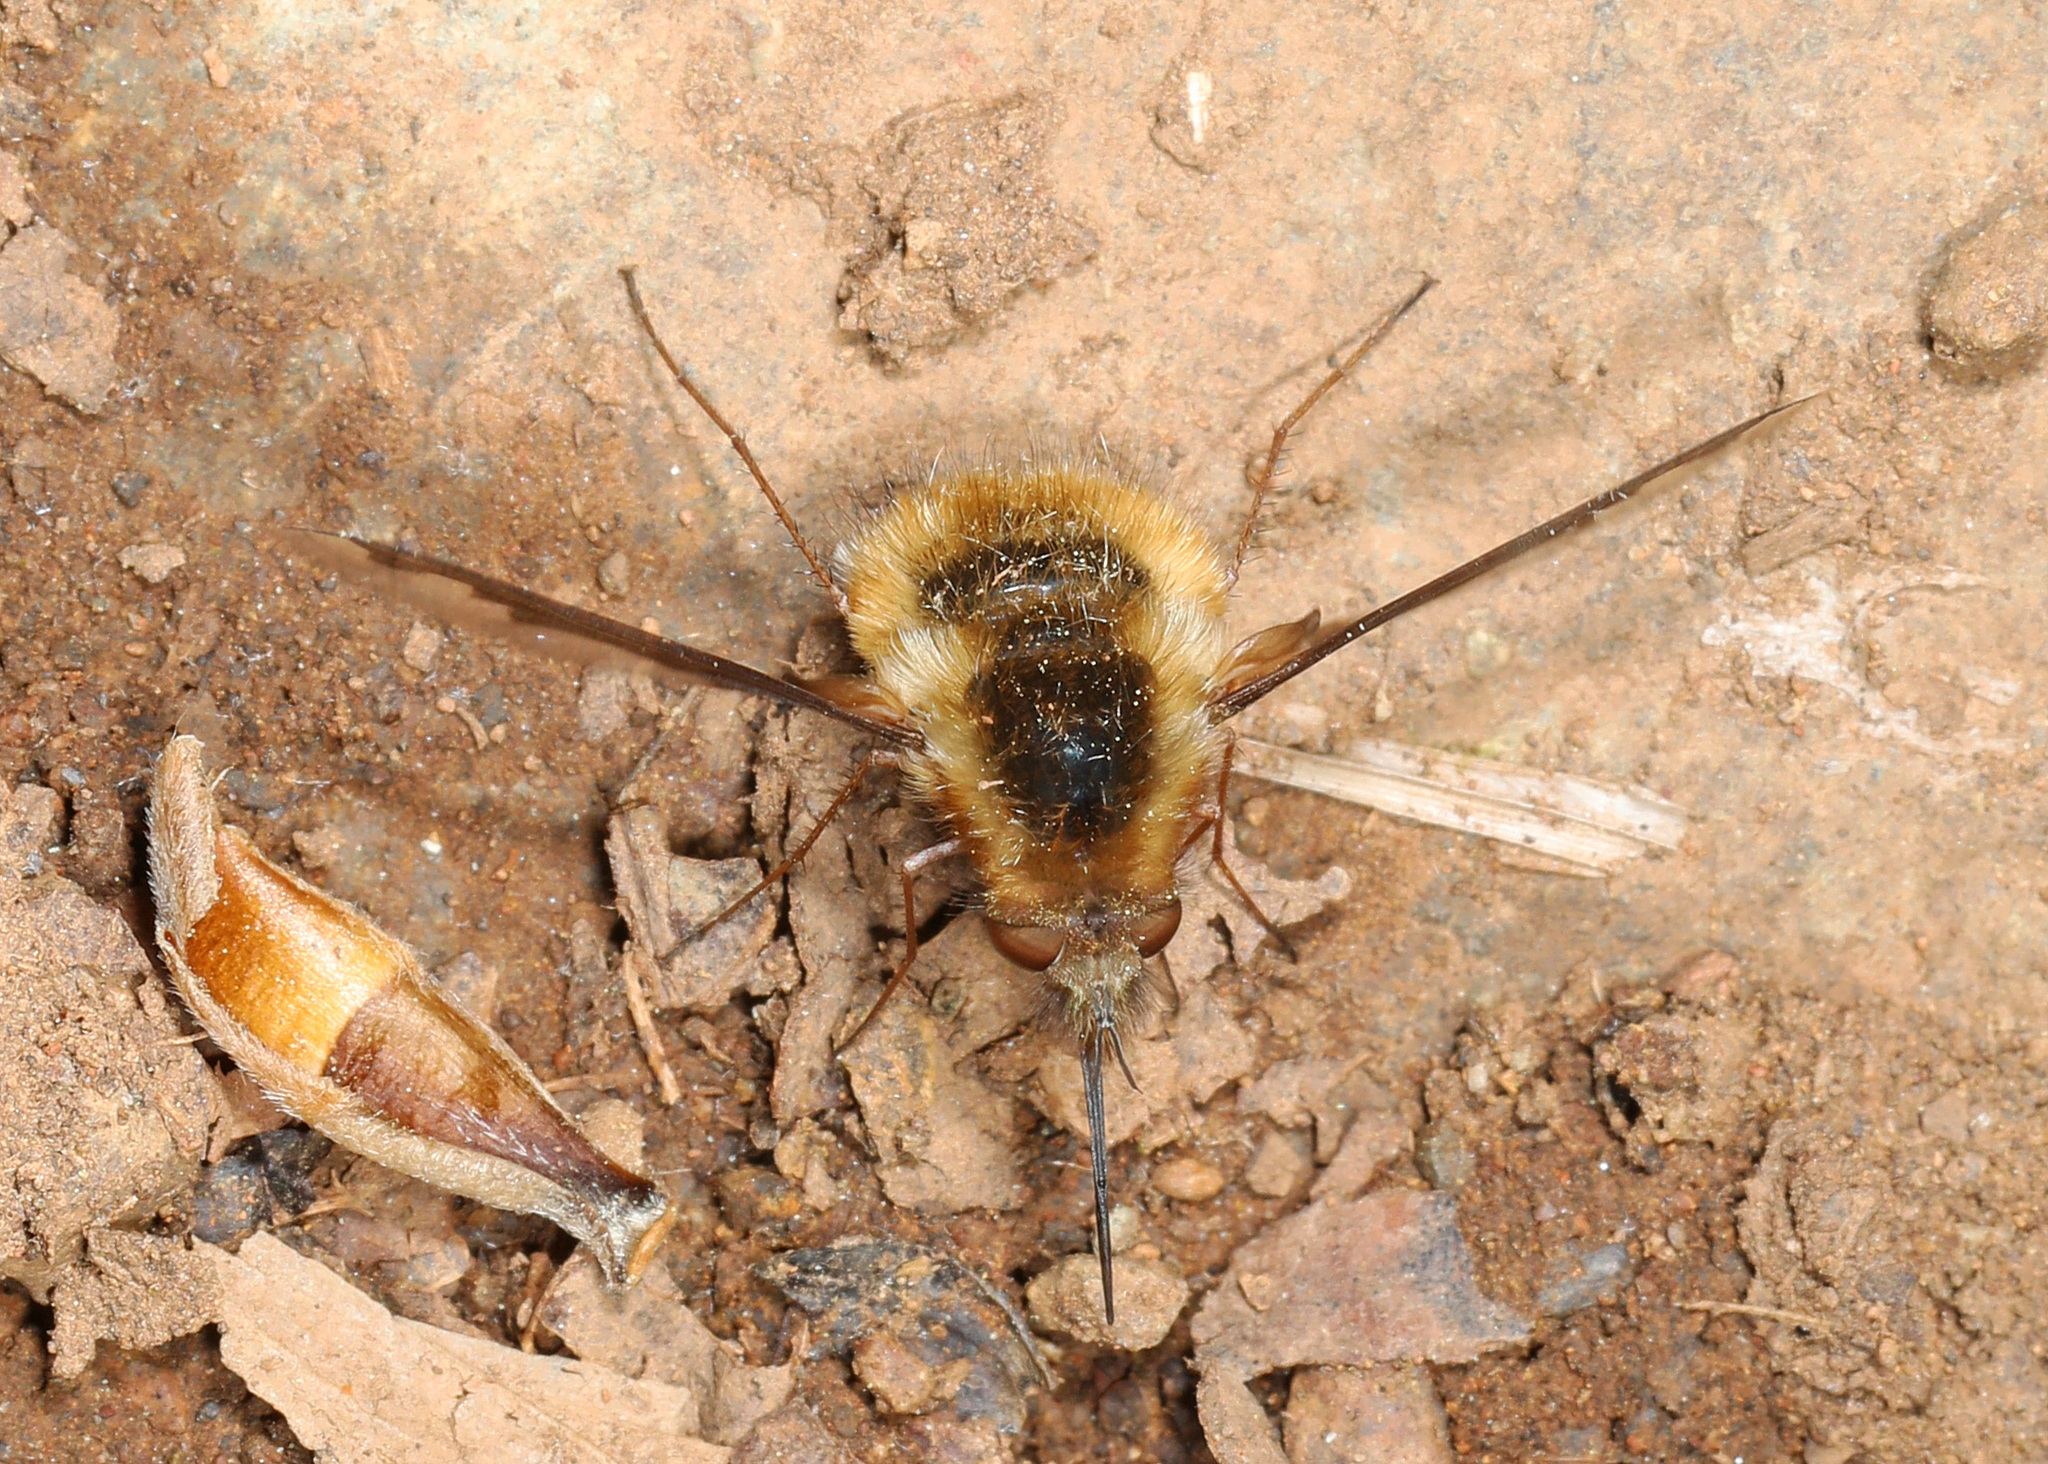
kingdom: Animalia
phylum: Arthropoda
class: Insecta
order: Diptera
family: Bombyliidae
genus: Bombylius
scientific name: Bombylius major
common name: Bee fly
